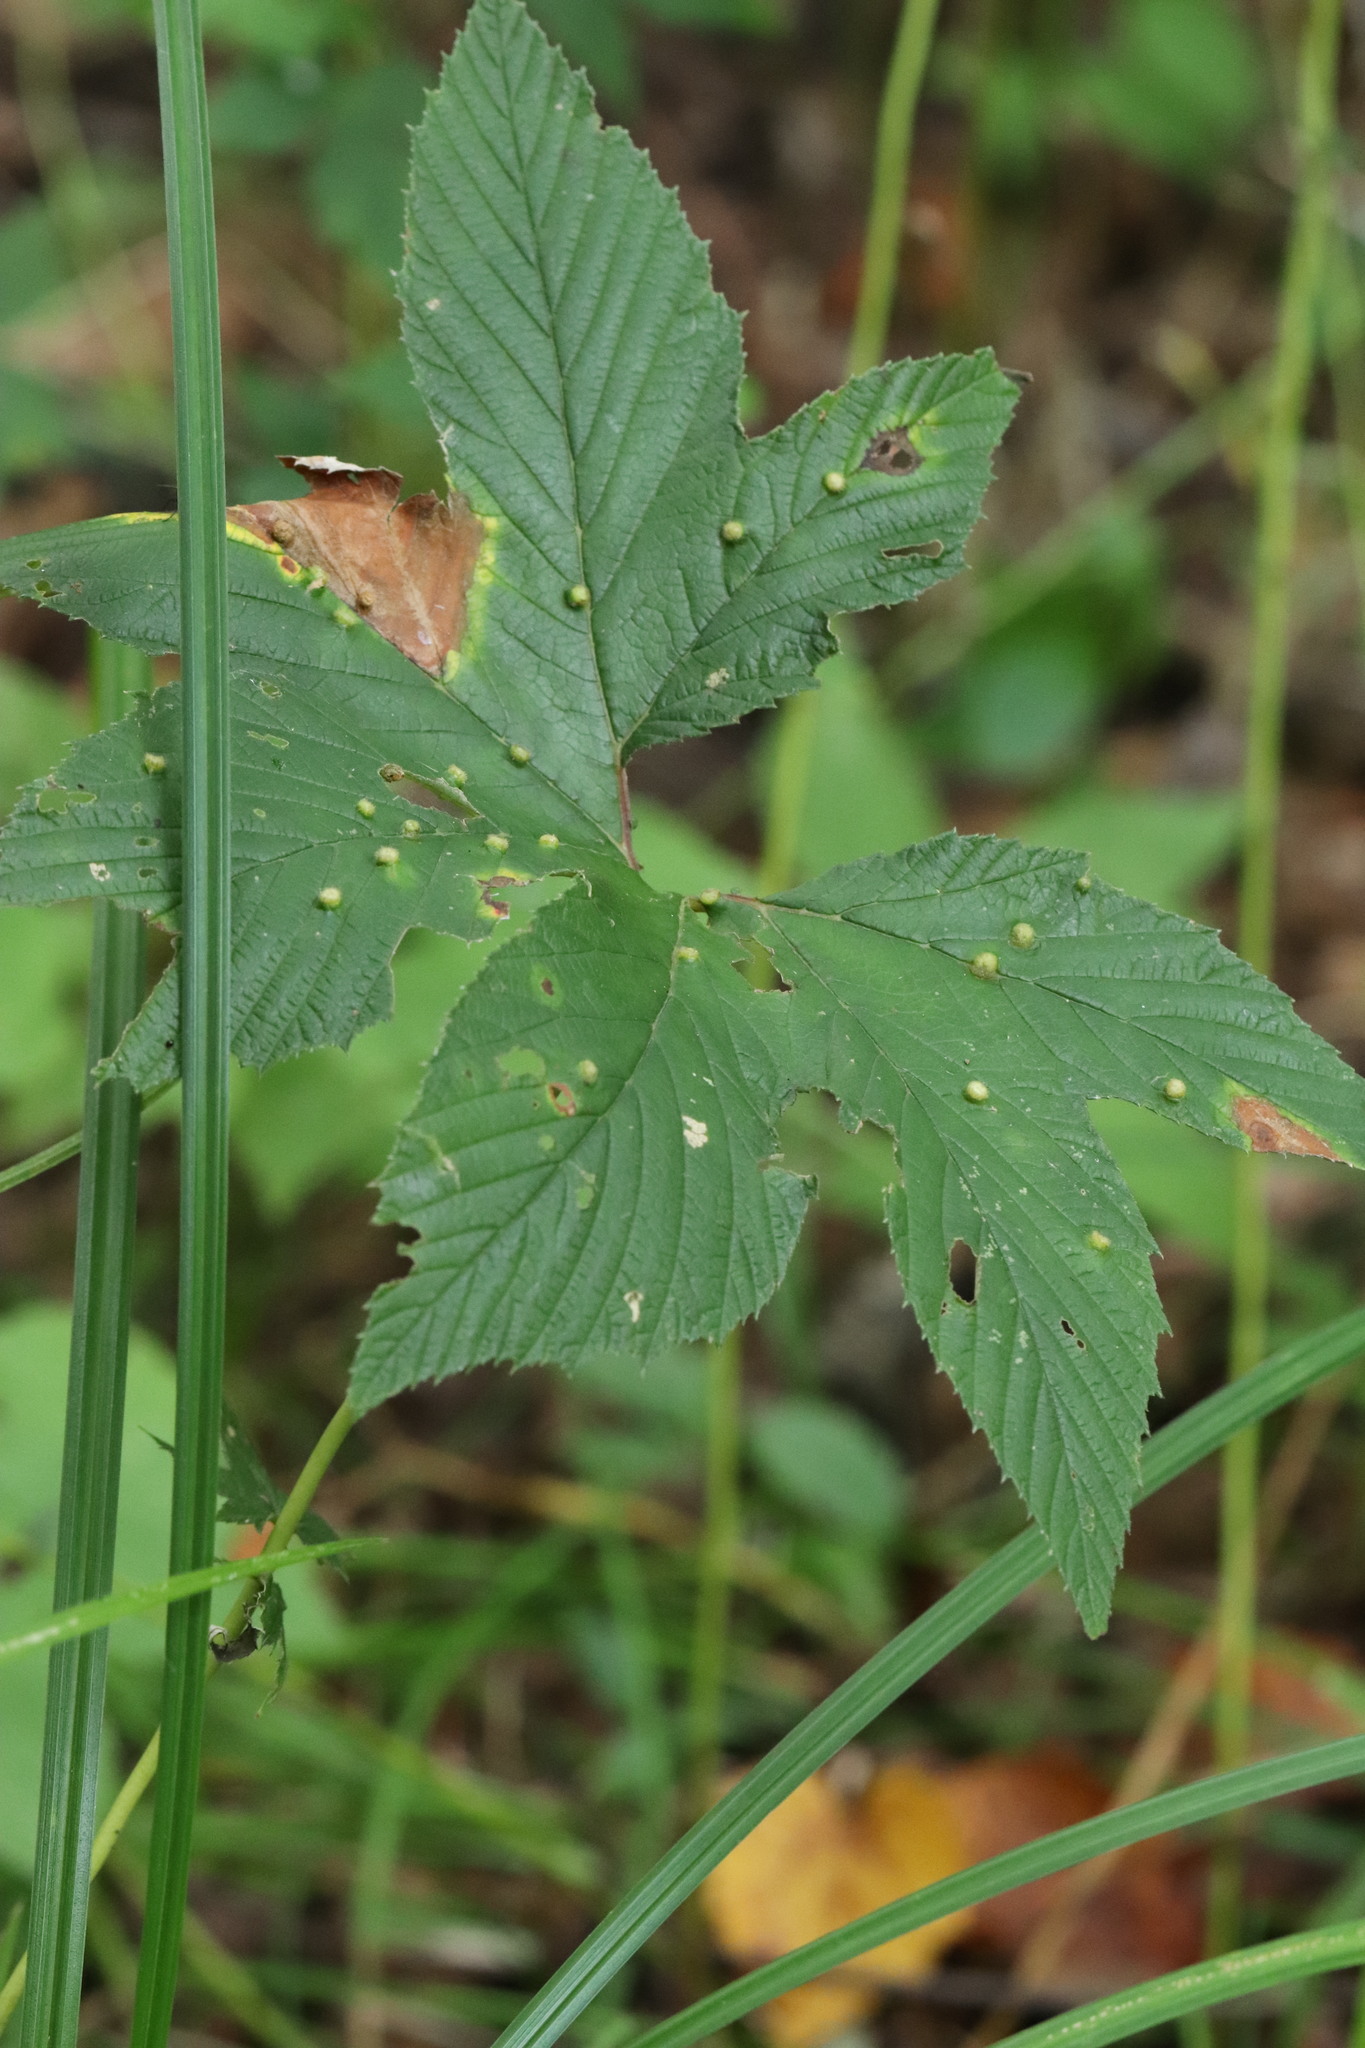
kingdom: Plantae
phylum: Tracheophyta
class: Magnoliopsida
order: Rosales
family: Rosaceae
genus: Filipendula
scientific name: Filipendula digitata
